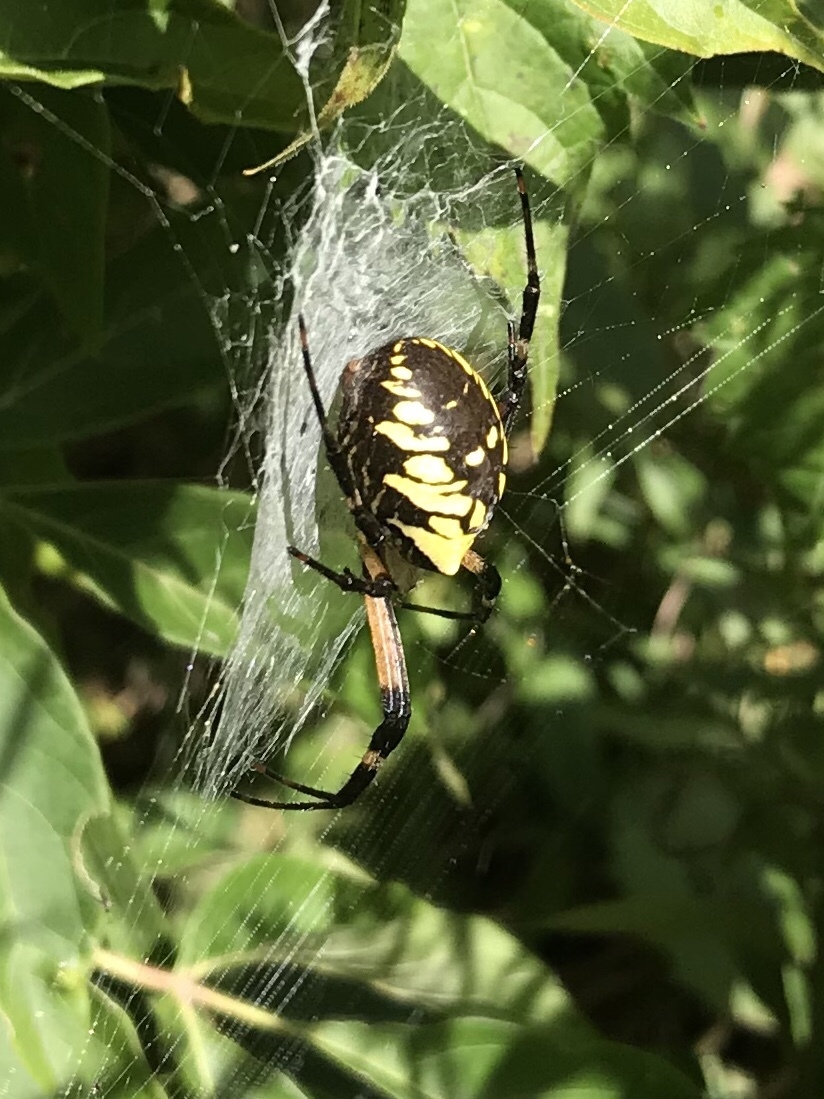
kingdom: Animalia
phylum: Arthropoda
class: Arachnida
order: Araneae
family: Araneidae
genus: Argiope
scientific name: Argiope aurantia
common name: Orb weavers
